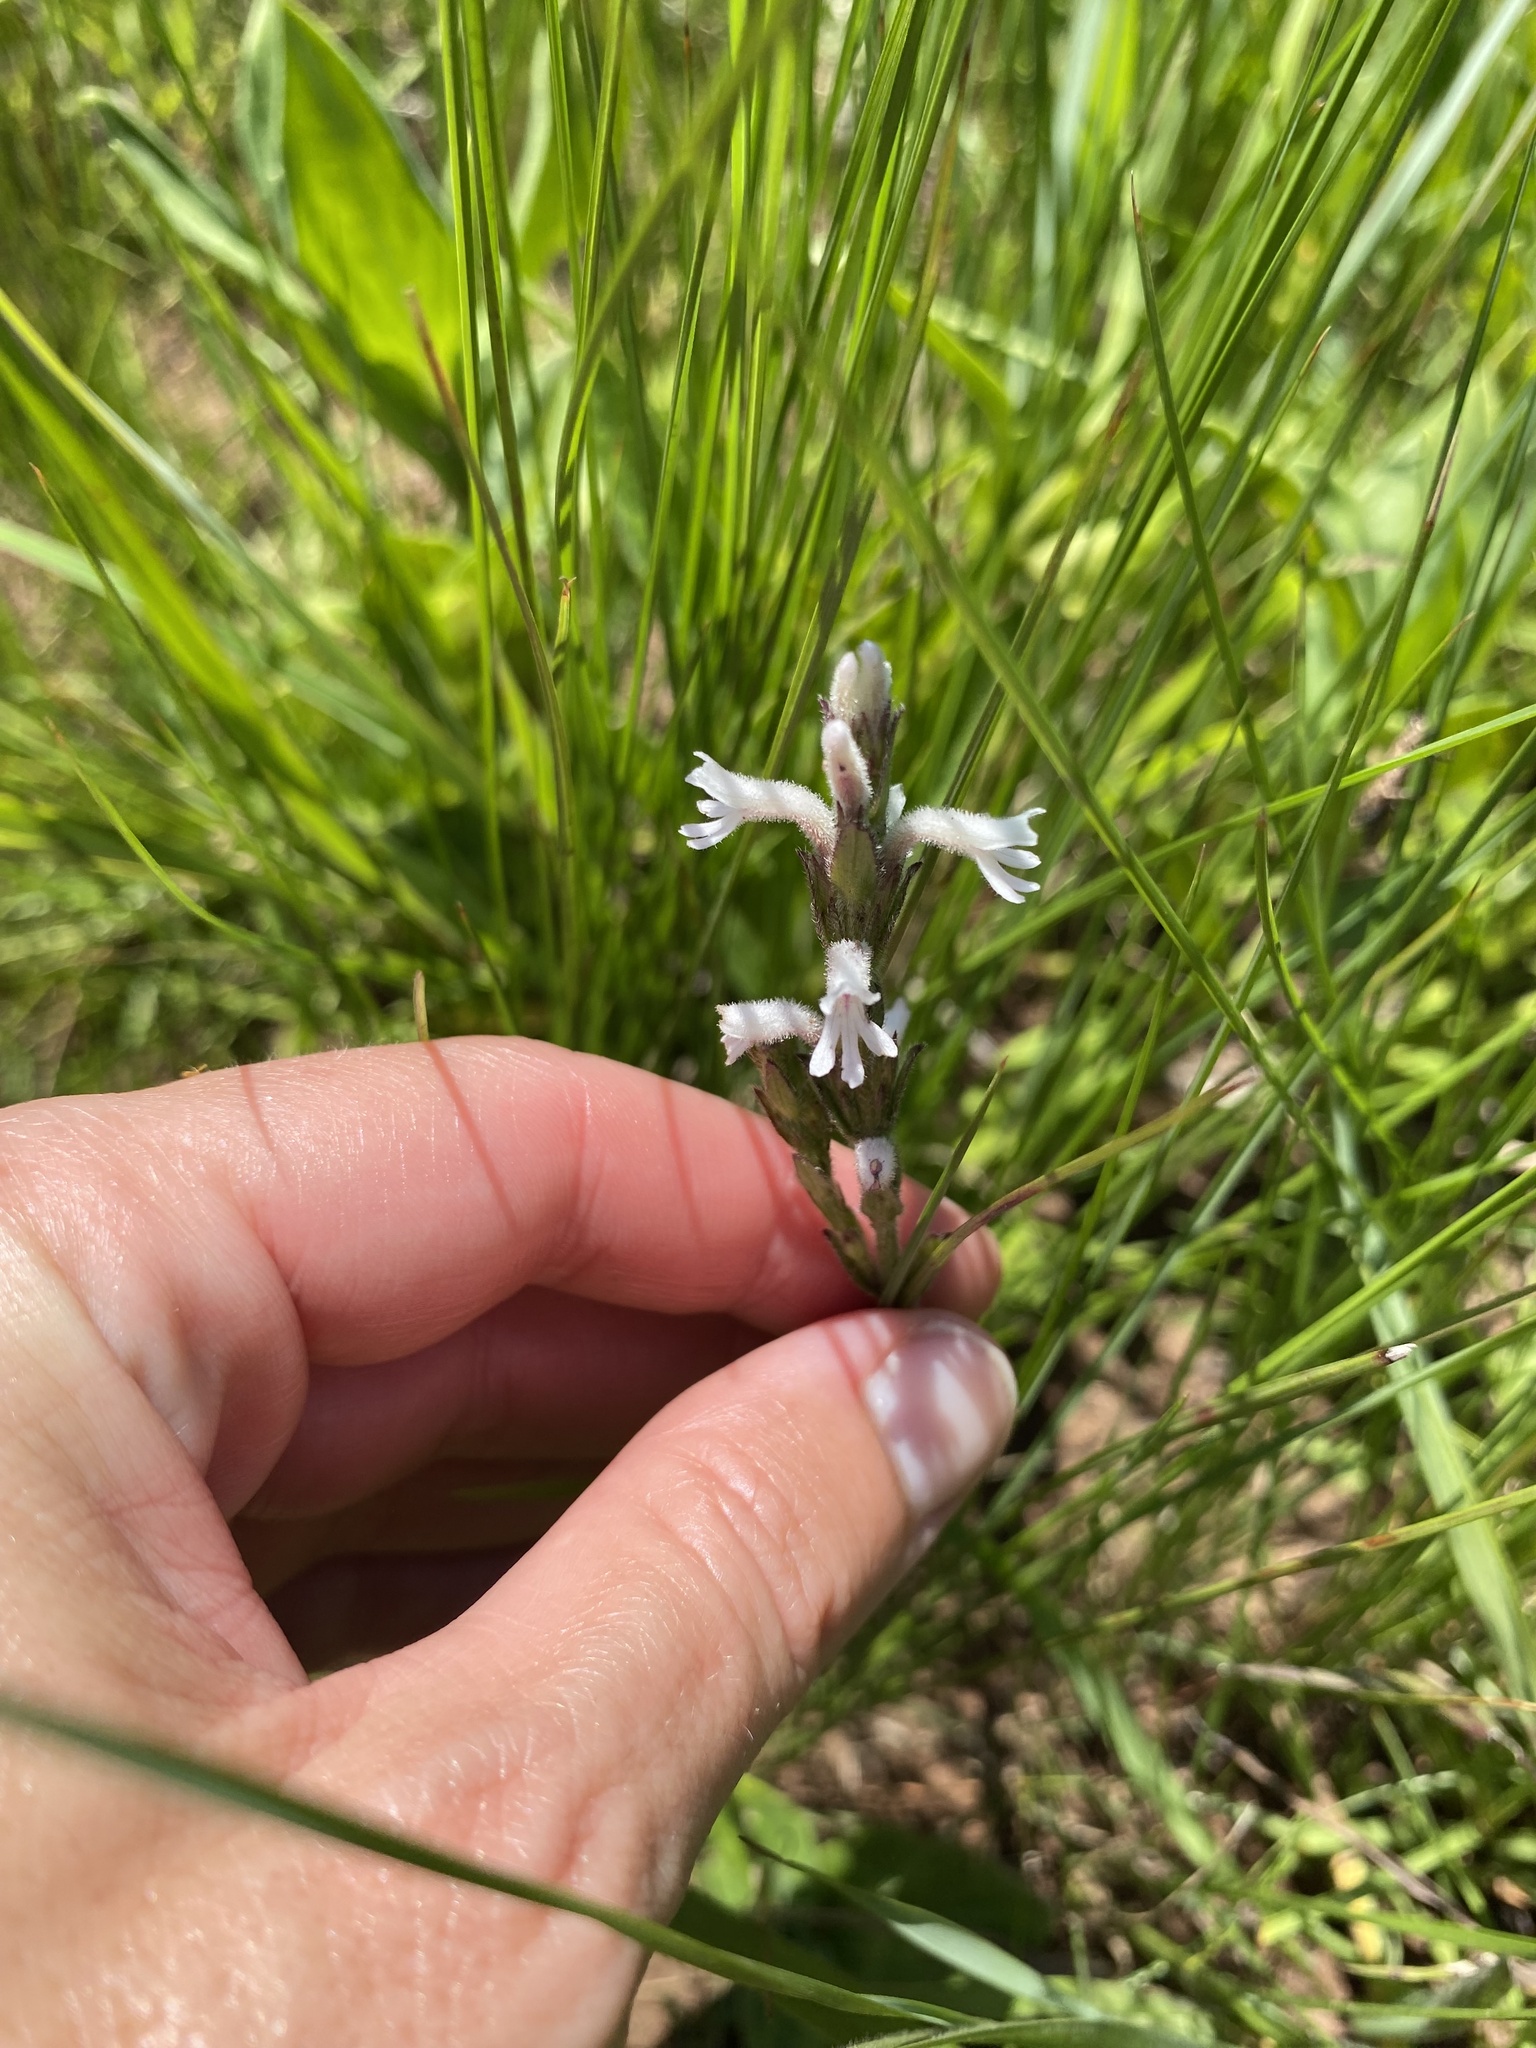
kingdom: Plantae
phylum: Tracheophyta
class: Magnoliopsida
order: Lamiales
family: Orobanchaceae
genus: Striga
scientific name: Striga bilabiata
